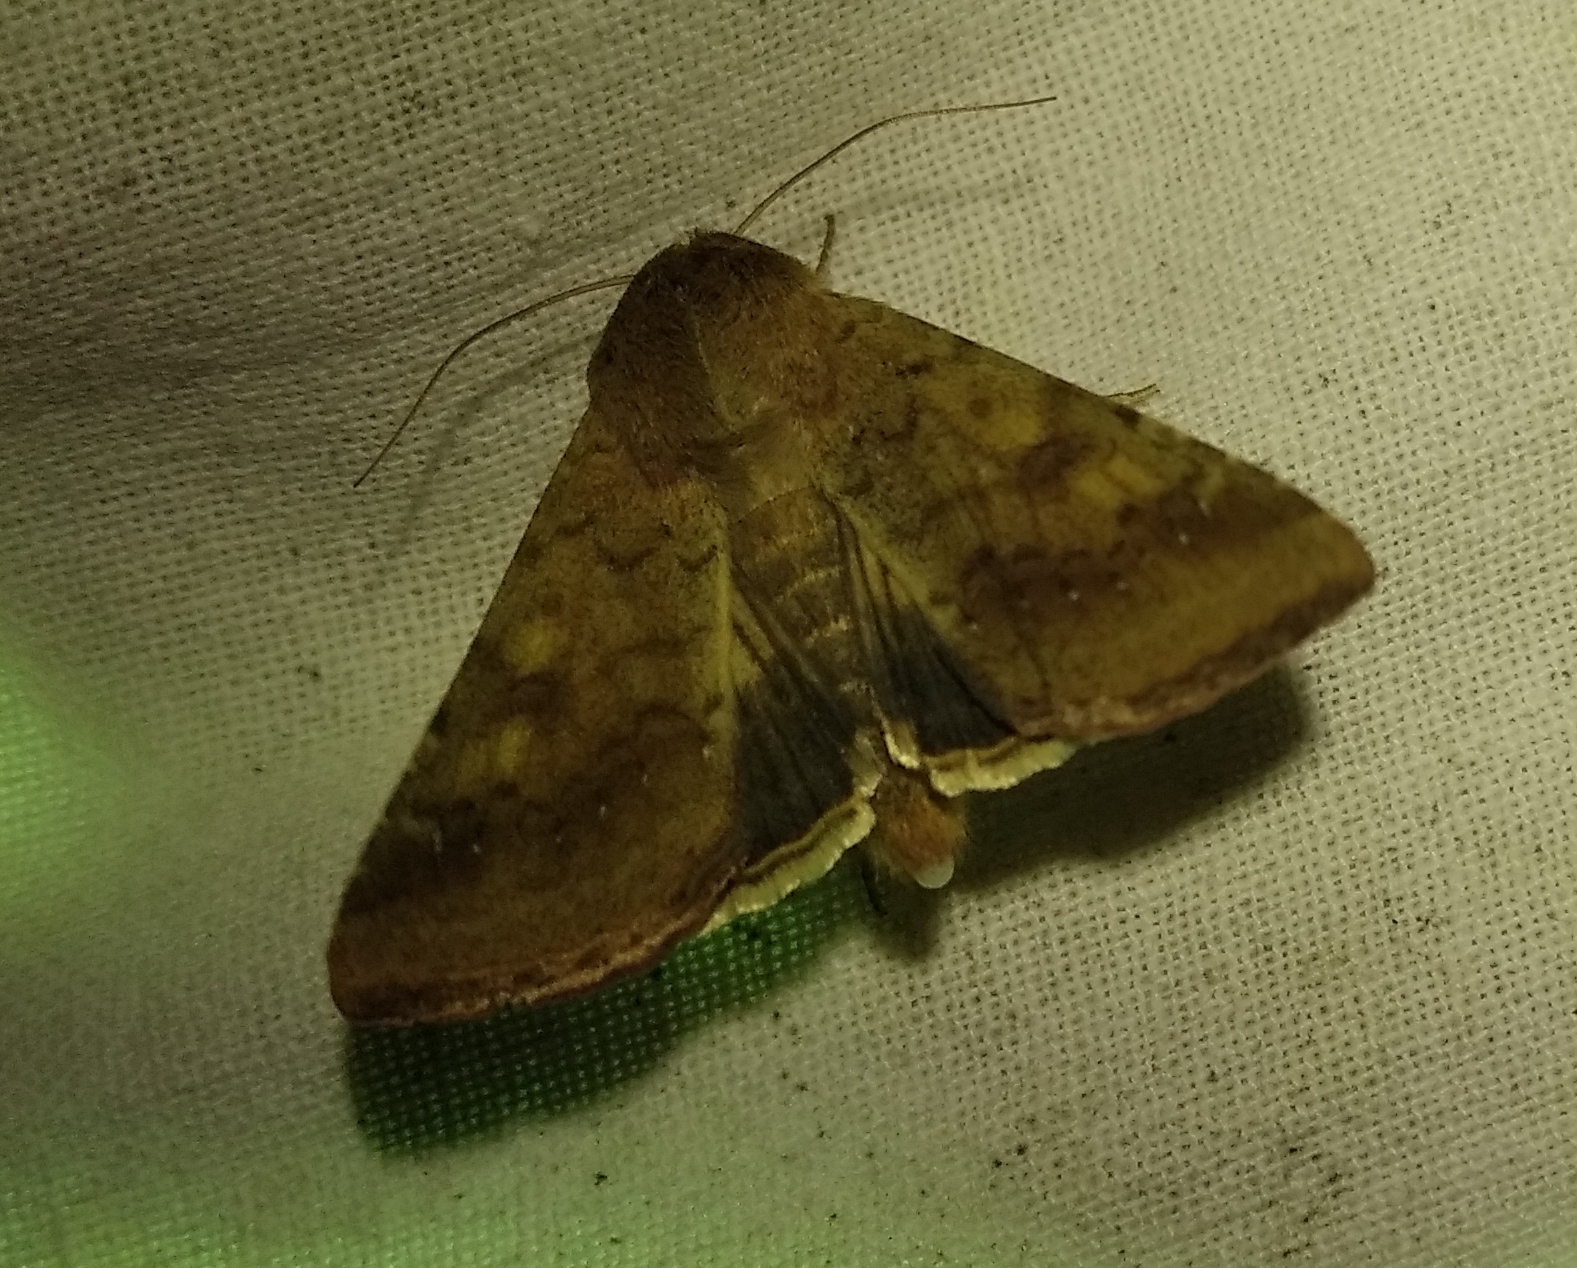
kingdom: Animalia
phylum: Arthropoda
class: Insecta
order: Lepidoptera
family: Noctuidae
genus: Helicoverpa
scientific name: Helicoverpa armigera
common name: Cotton bollworm
